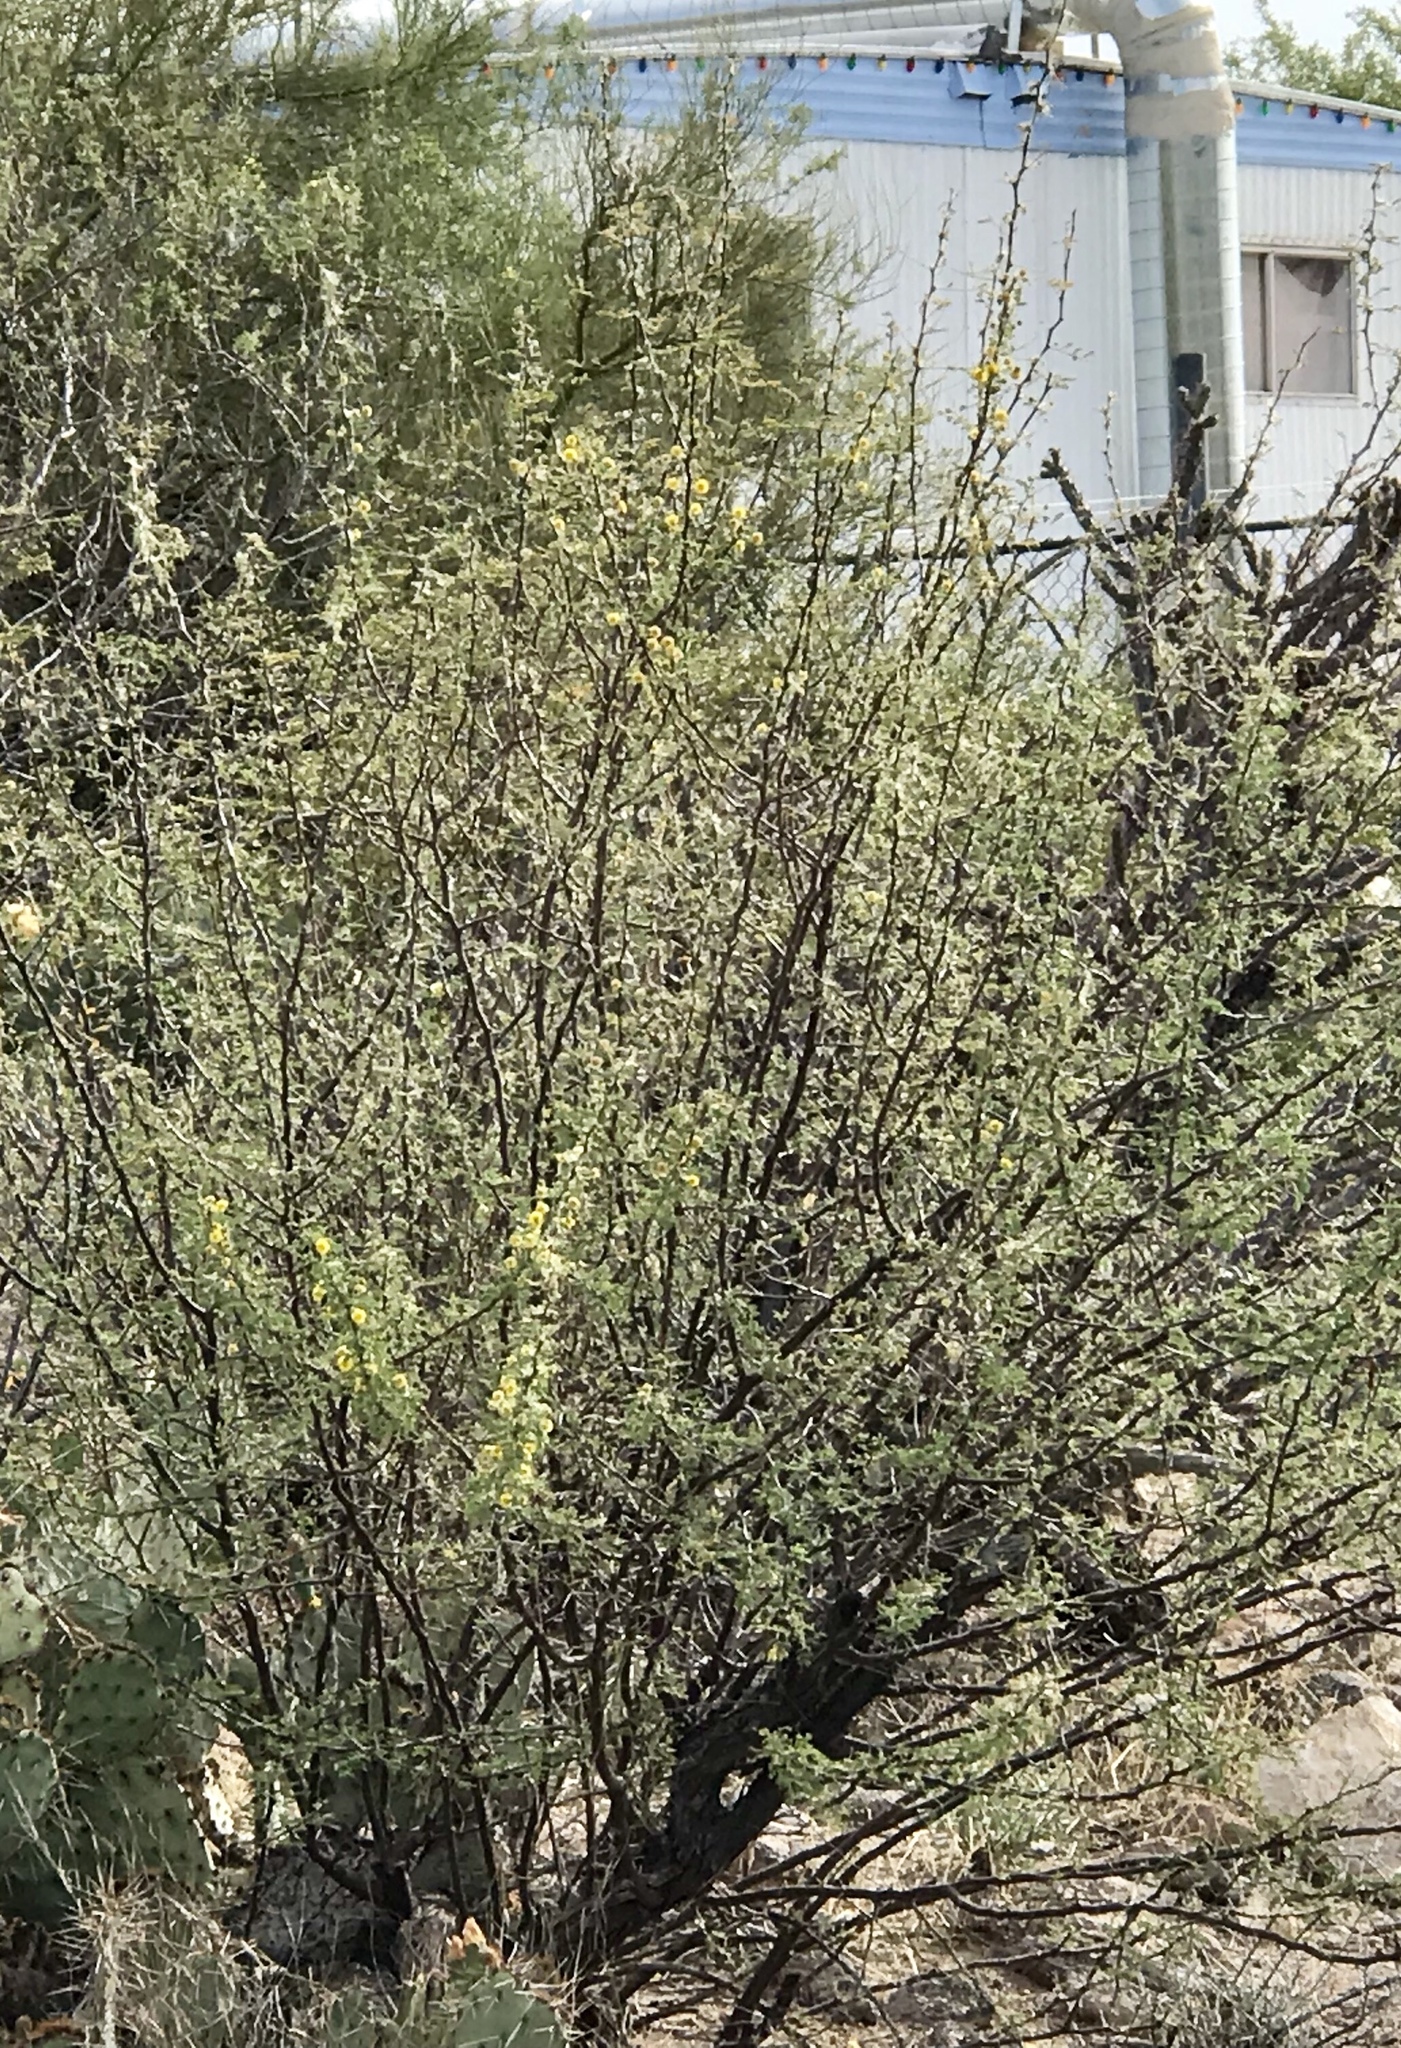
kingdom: Plantae
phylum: Tracheophyta
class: Magnoliopsida
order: Fabales
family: Fabaceae
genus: Vachellia
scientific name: Vachellia constricta
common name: Mescat acacia
